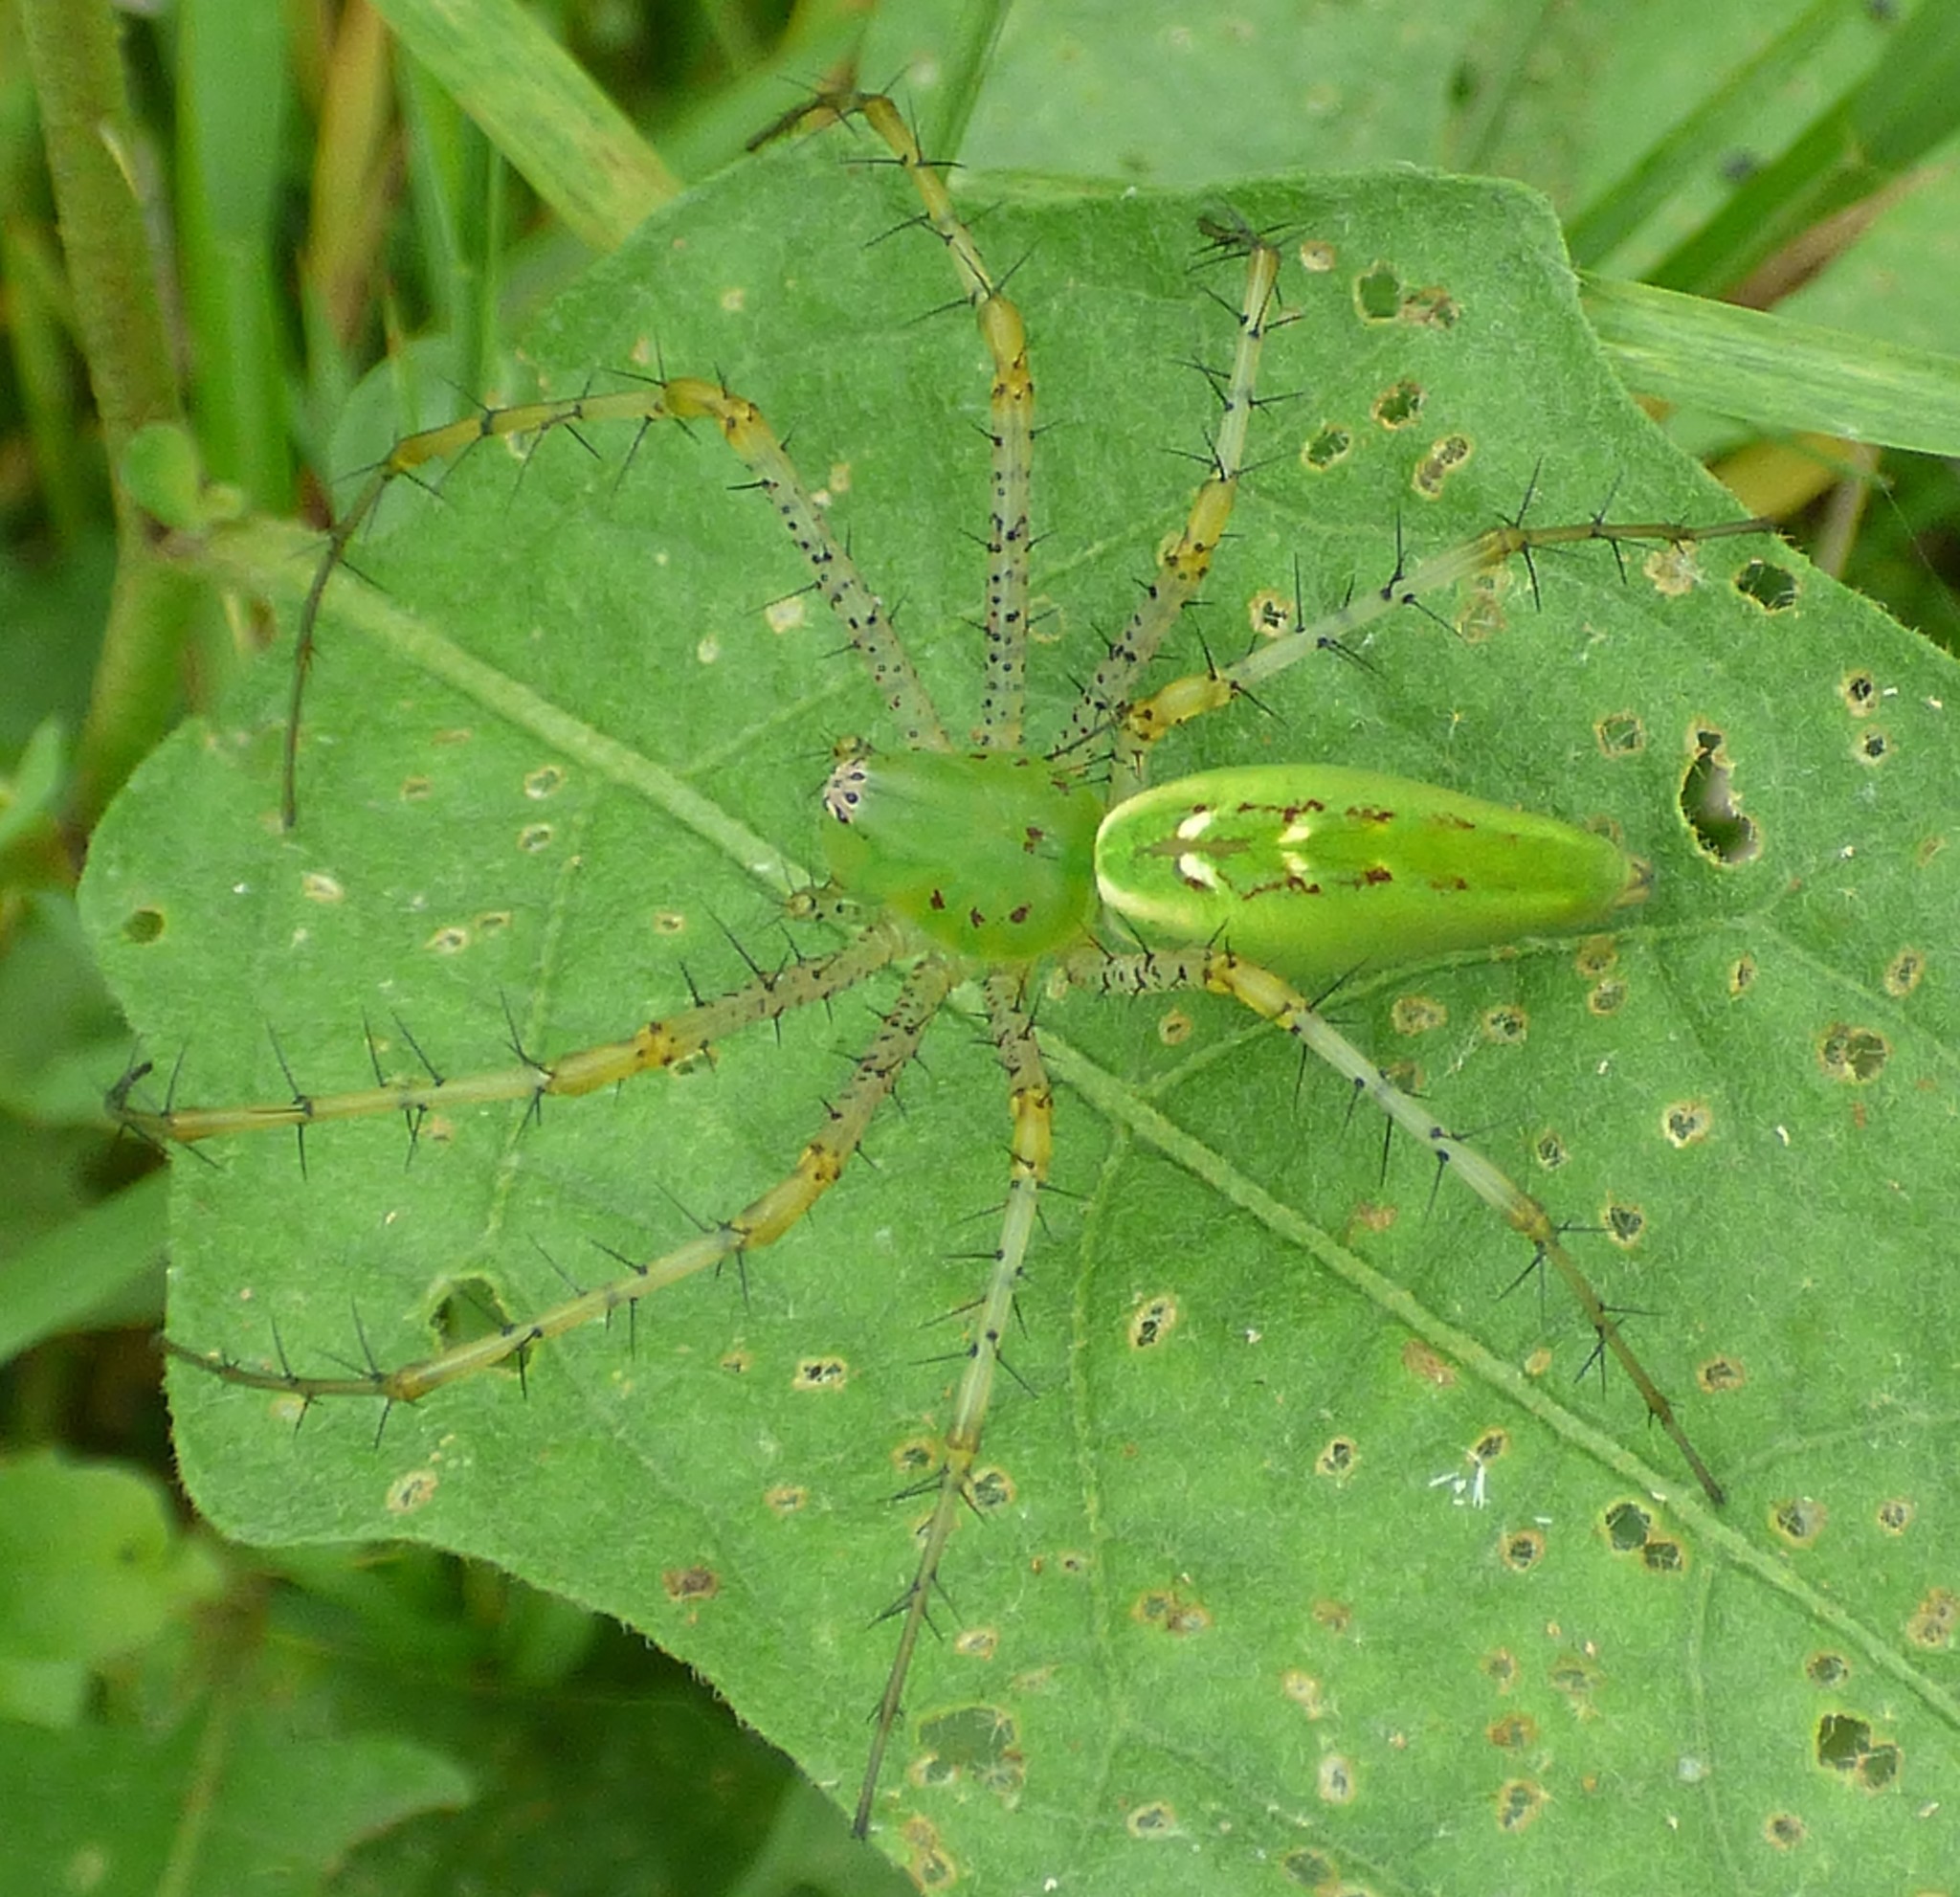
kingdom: Animalia
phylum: Arthropoda
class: Arachnida
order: Araneae
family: Oxyopidae
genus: Peucetia
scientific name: Peucetia viridans
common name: Lynx spiders
